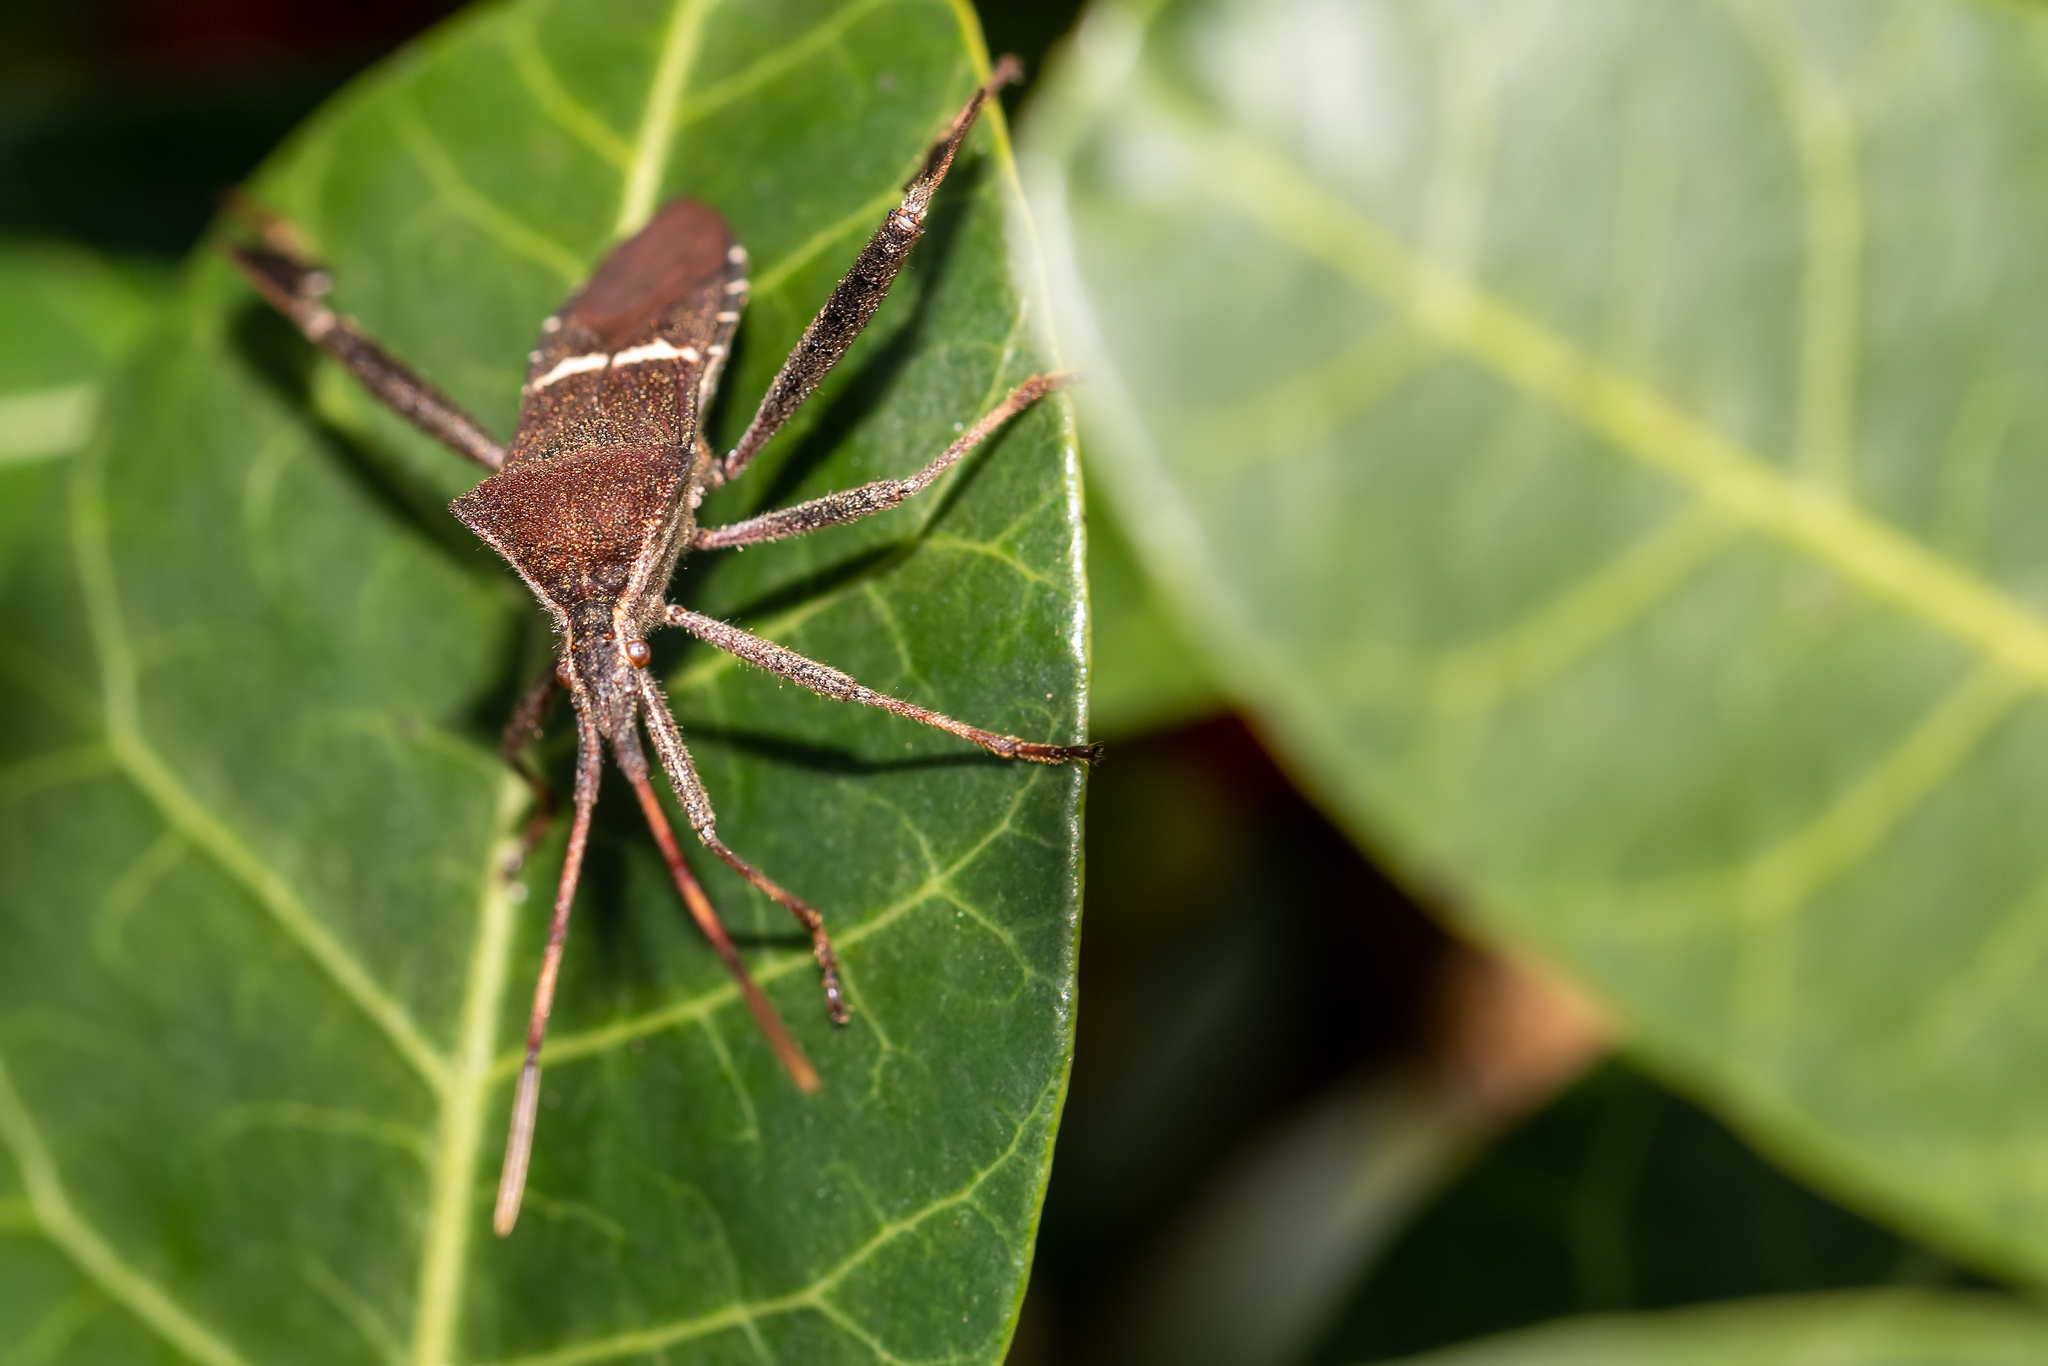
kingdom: Animalia
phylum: Arthropoda
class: Insecta
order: Hemiptera
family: Coreidae
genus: Leptoglossus
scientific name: Leptoglossus phyllopus
